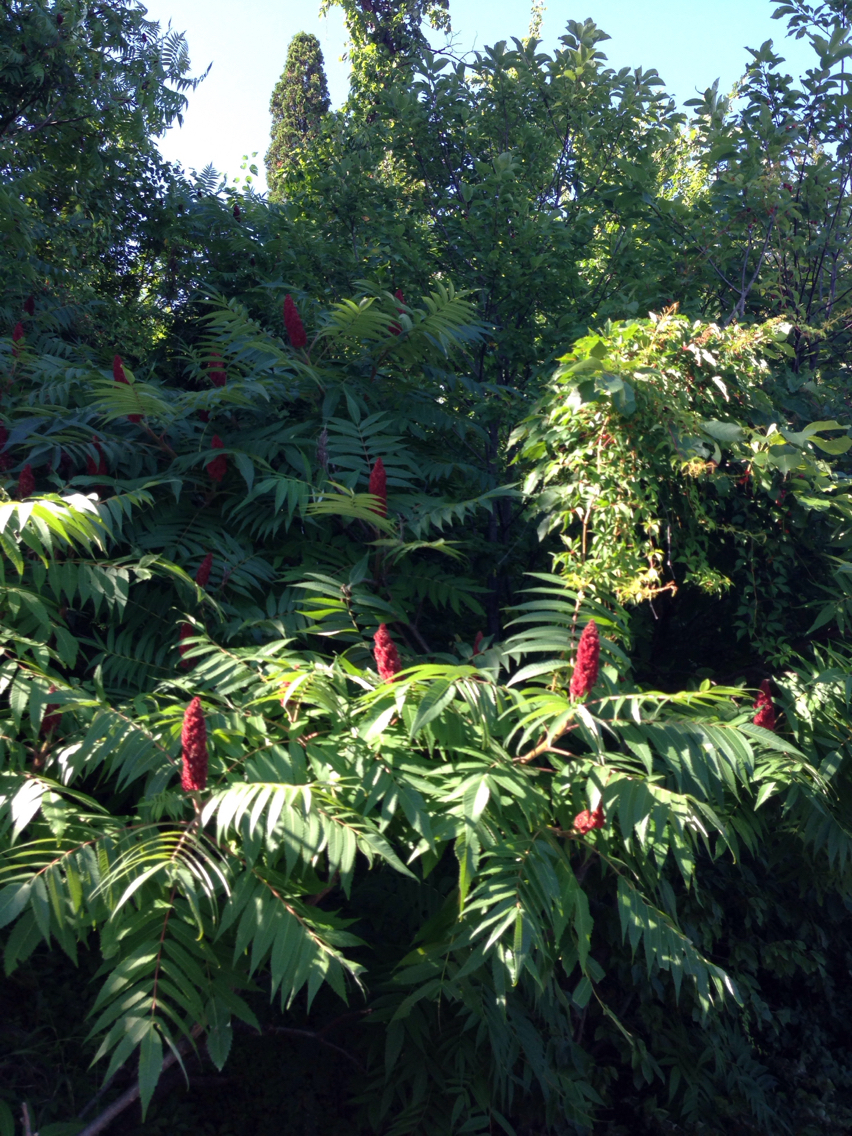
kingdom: Plantae
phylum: Tracheophyta
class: Magnoliopsida
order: Sapindales
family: Anacardiaceae
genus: Rhus
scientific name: Rhus typhina
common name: Staghorn sumac
